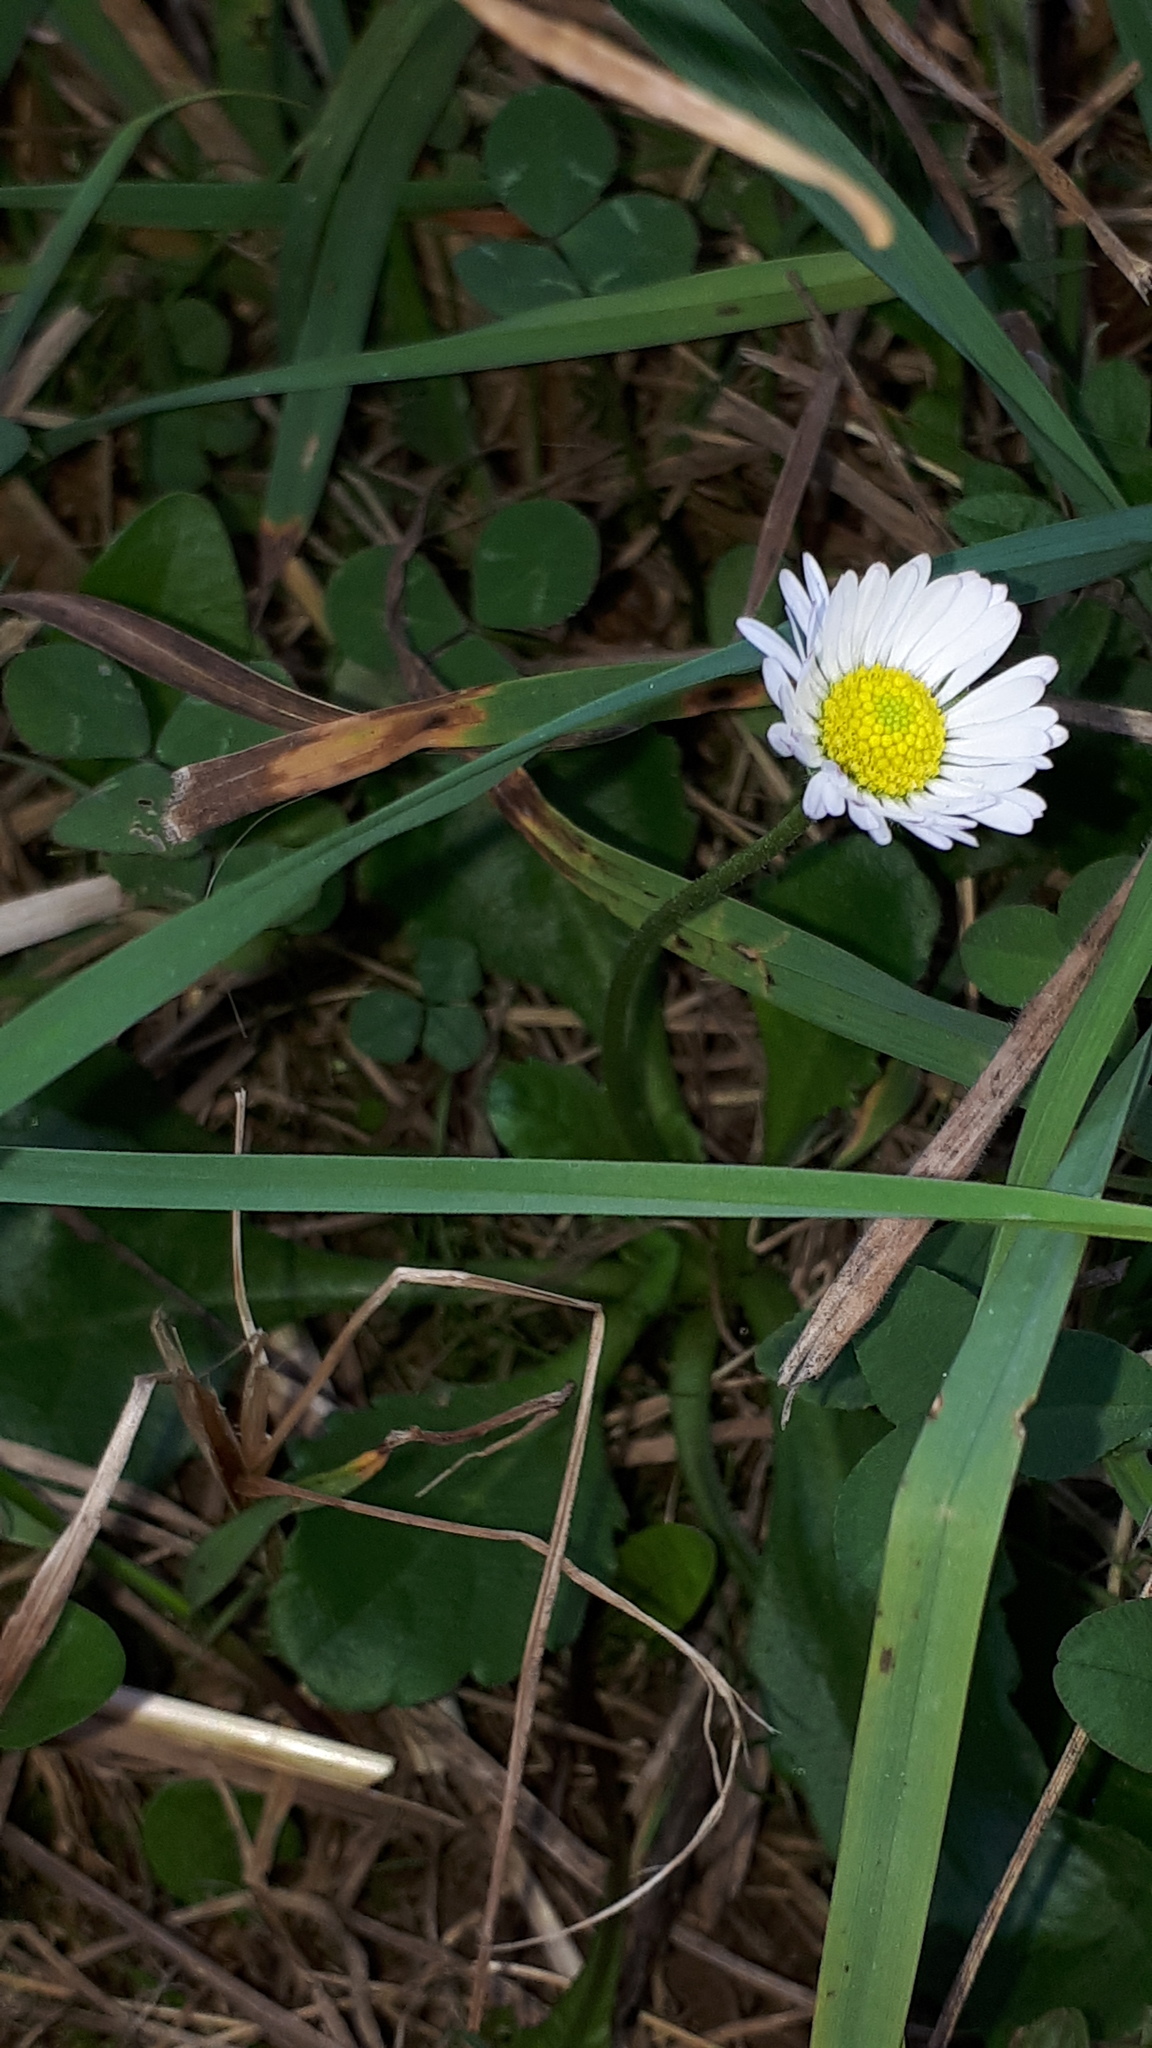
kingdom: Plantae
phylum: Tracheophyta
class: Magnoliopsida
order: Asterales
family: Asteraceae
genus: Bellis
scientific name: Bellis perennis
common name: Lawndaisy
